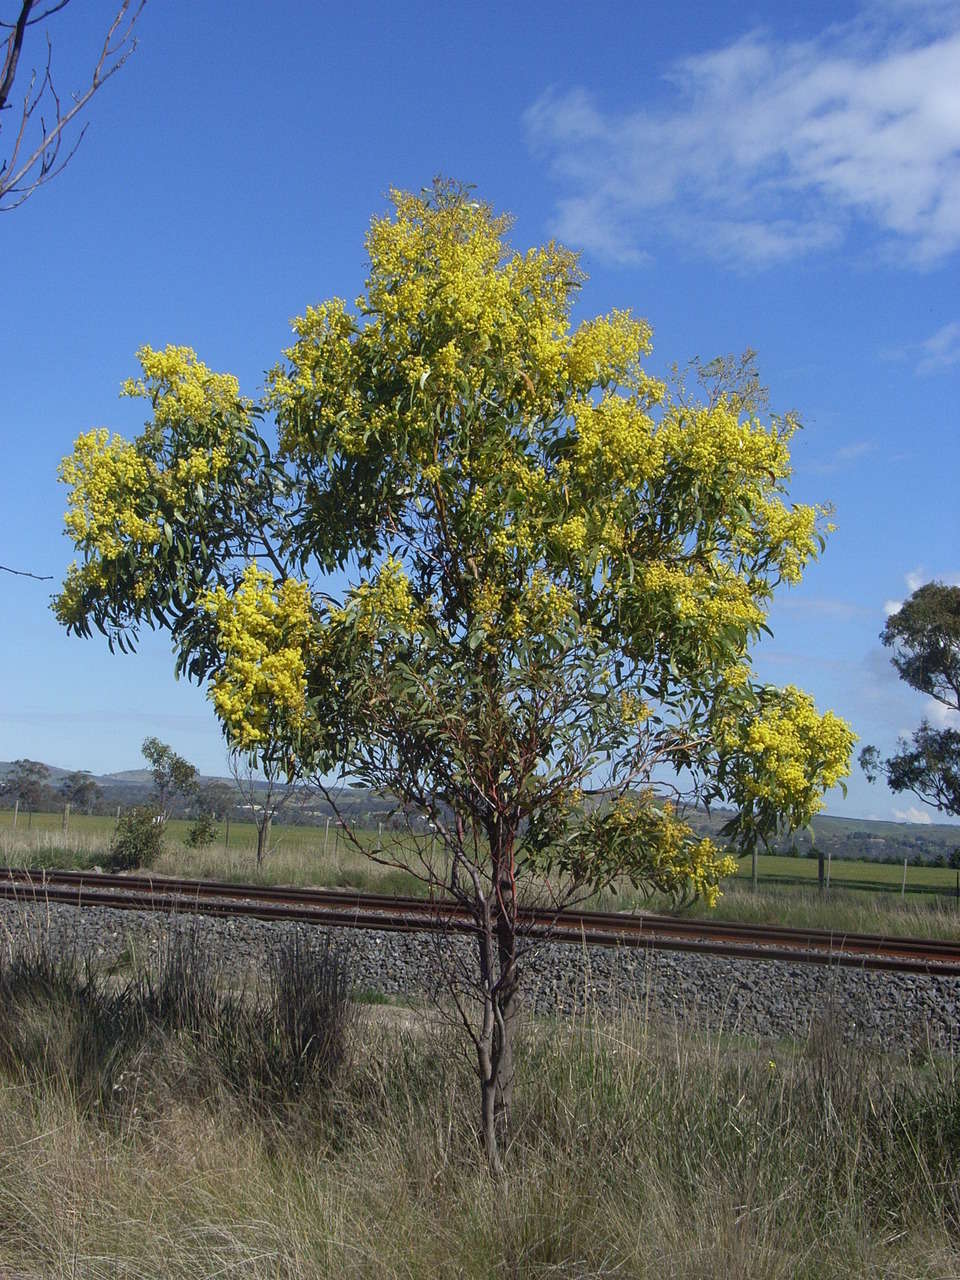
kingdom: Plantae
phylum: Tracheophyta
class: Magnoliopsida
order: Fabales
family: Fabaceae
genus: Acacia
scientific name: Acacia pycnantha
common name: Golden wattle
